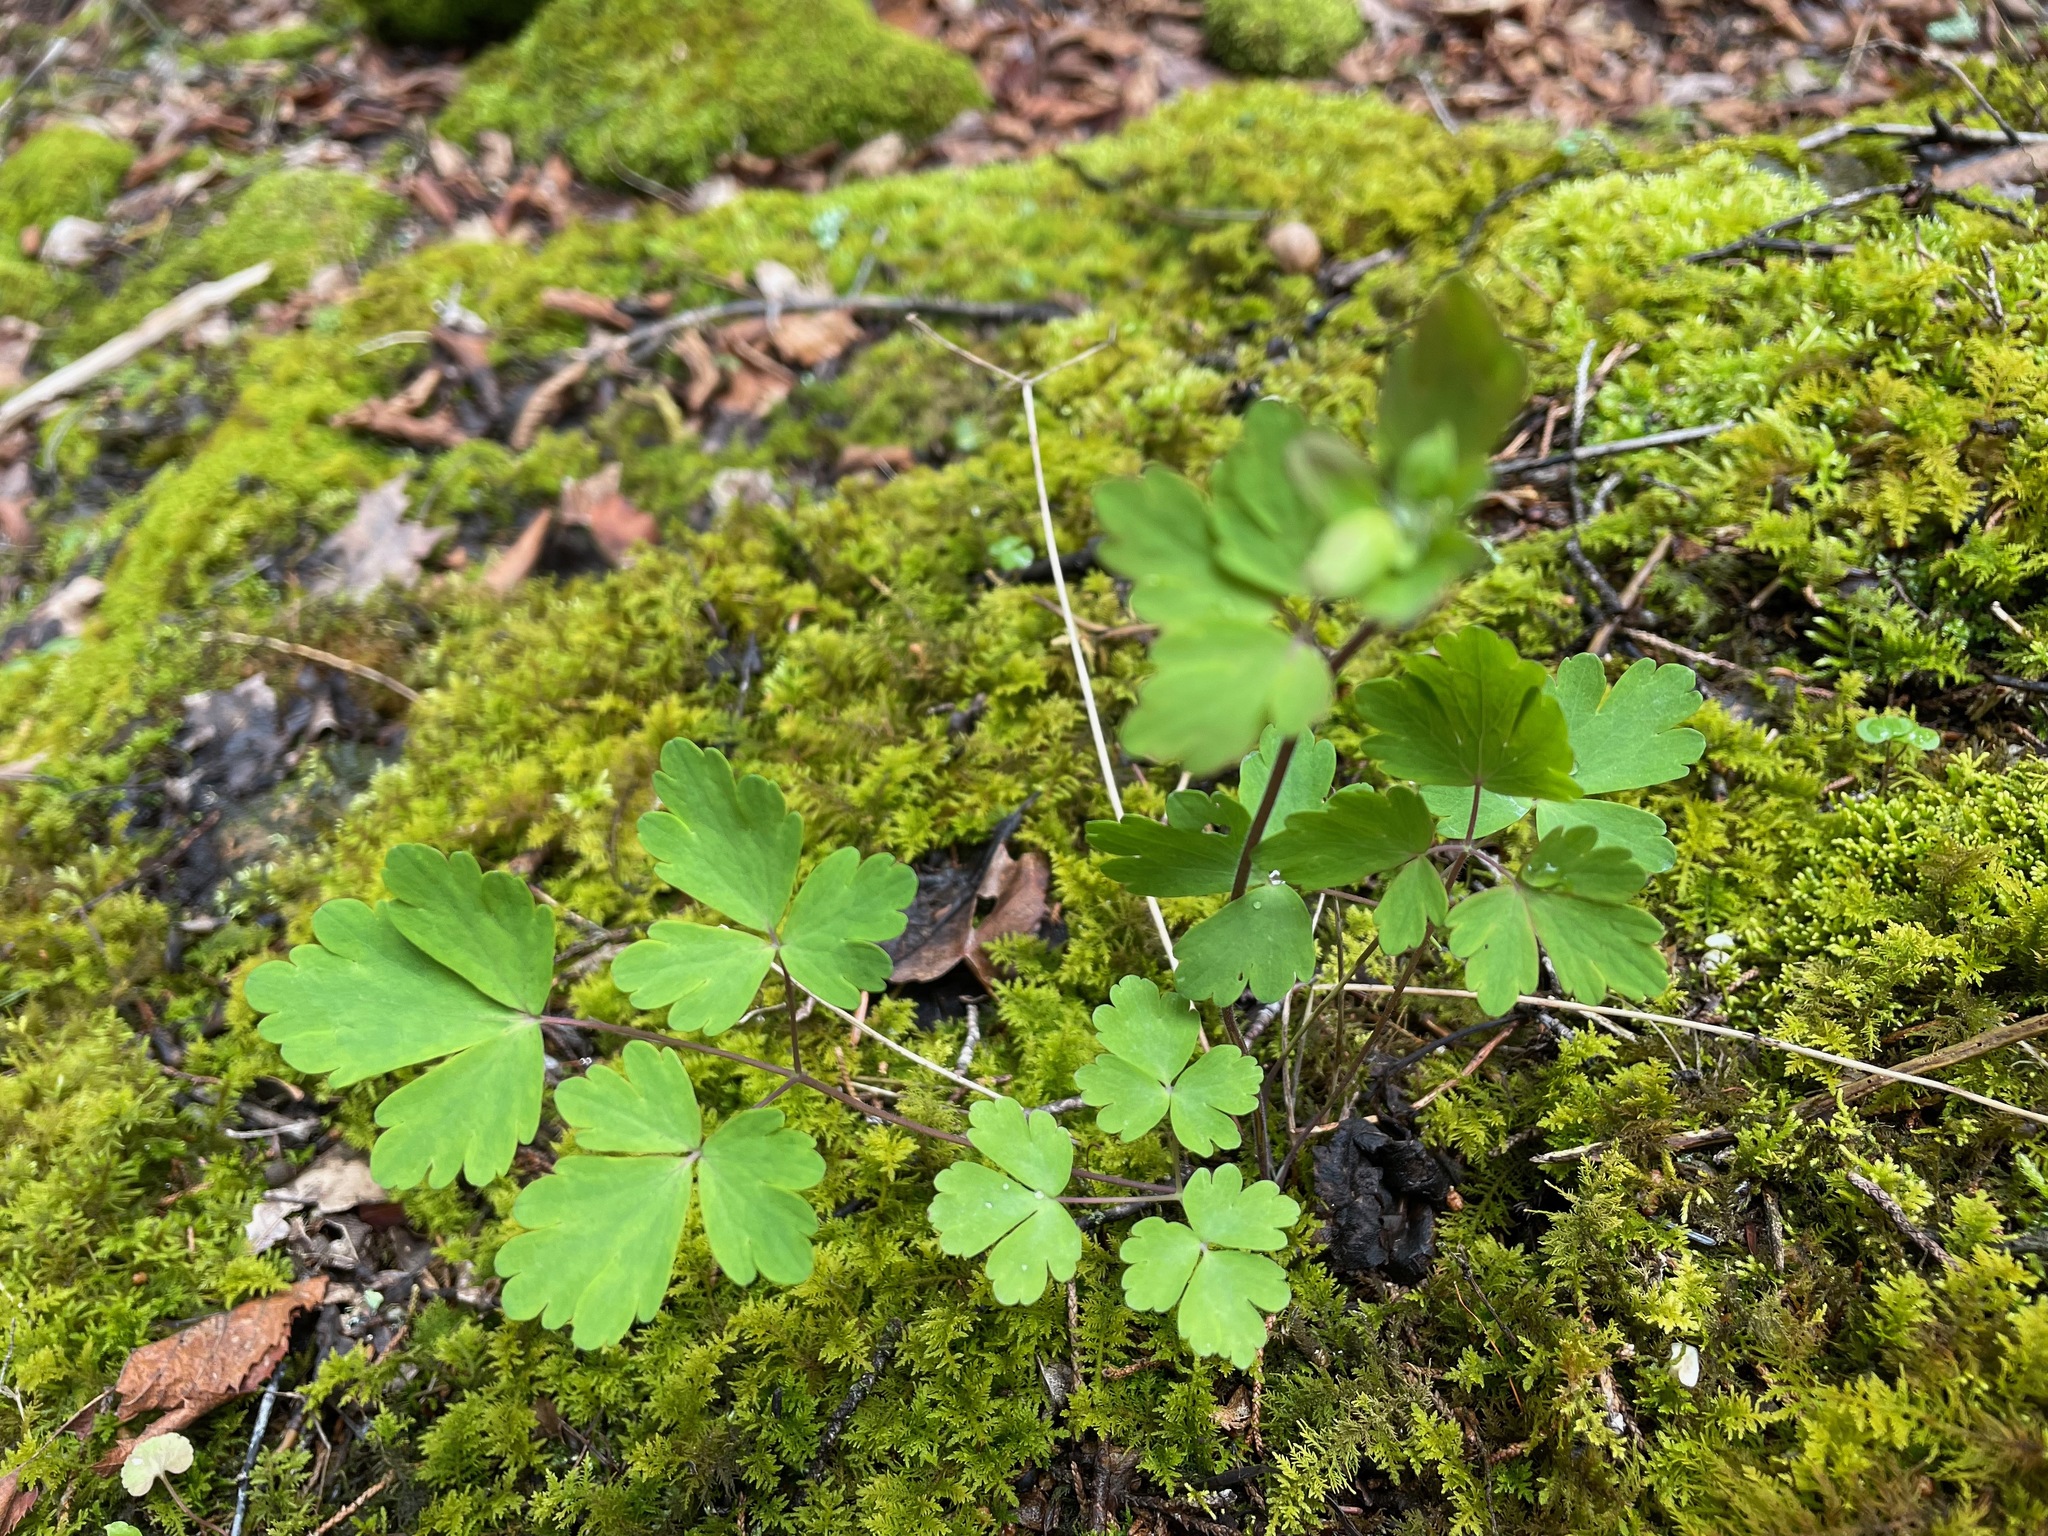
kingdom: Plantae
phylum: Tracheophyta
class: Magnoliopsida
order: Ranunculales
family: Ranunculaceae
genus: Aquilegia
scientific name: Aquilegia canadensis
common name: American columbine
